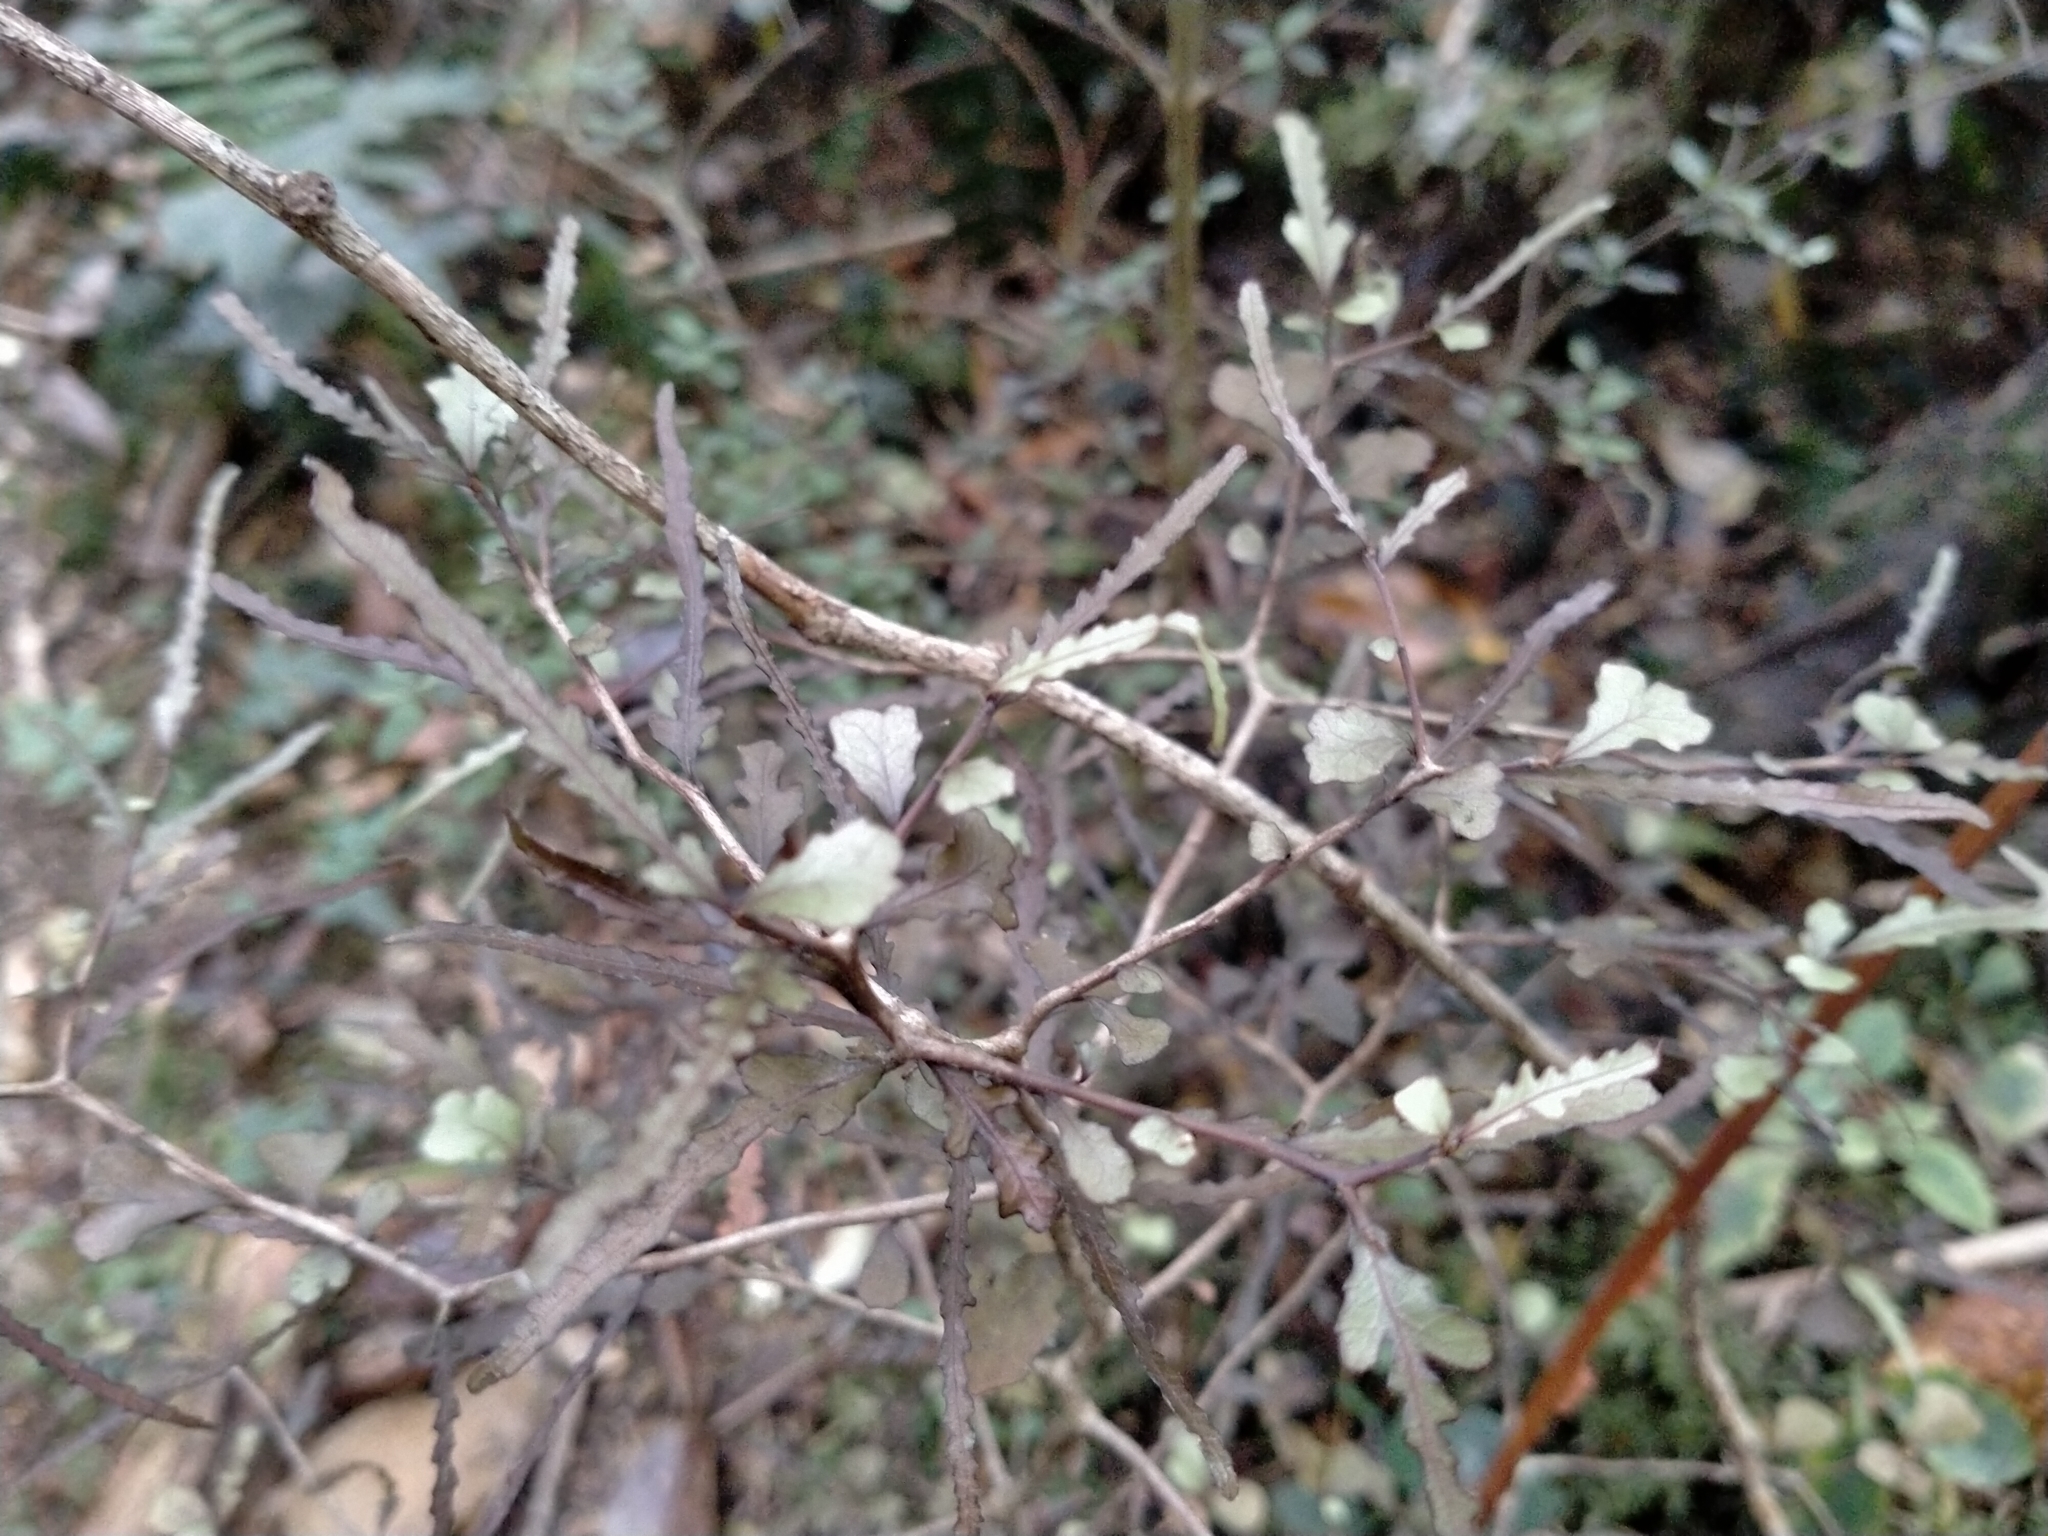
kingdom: Plantae
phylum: Tracheophyta
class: Magnoliopsida
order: Oxalidales
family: Elaeocarpaceae
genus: Elaeocarpus
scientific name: Elaeocarpus hookerianus
